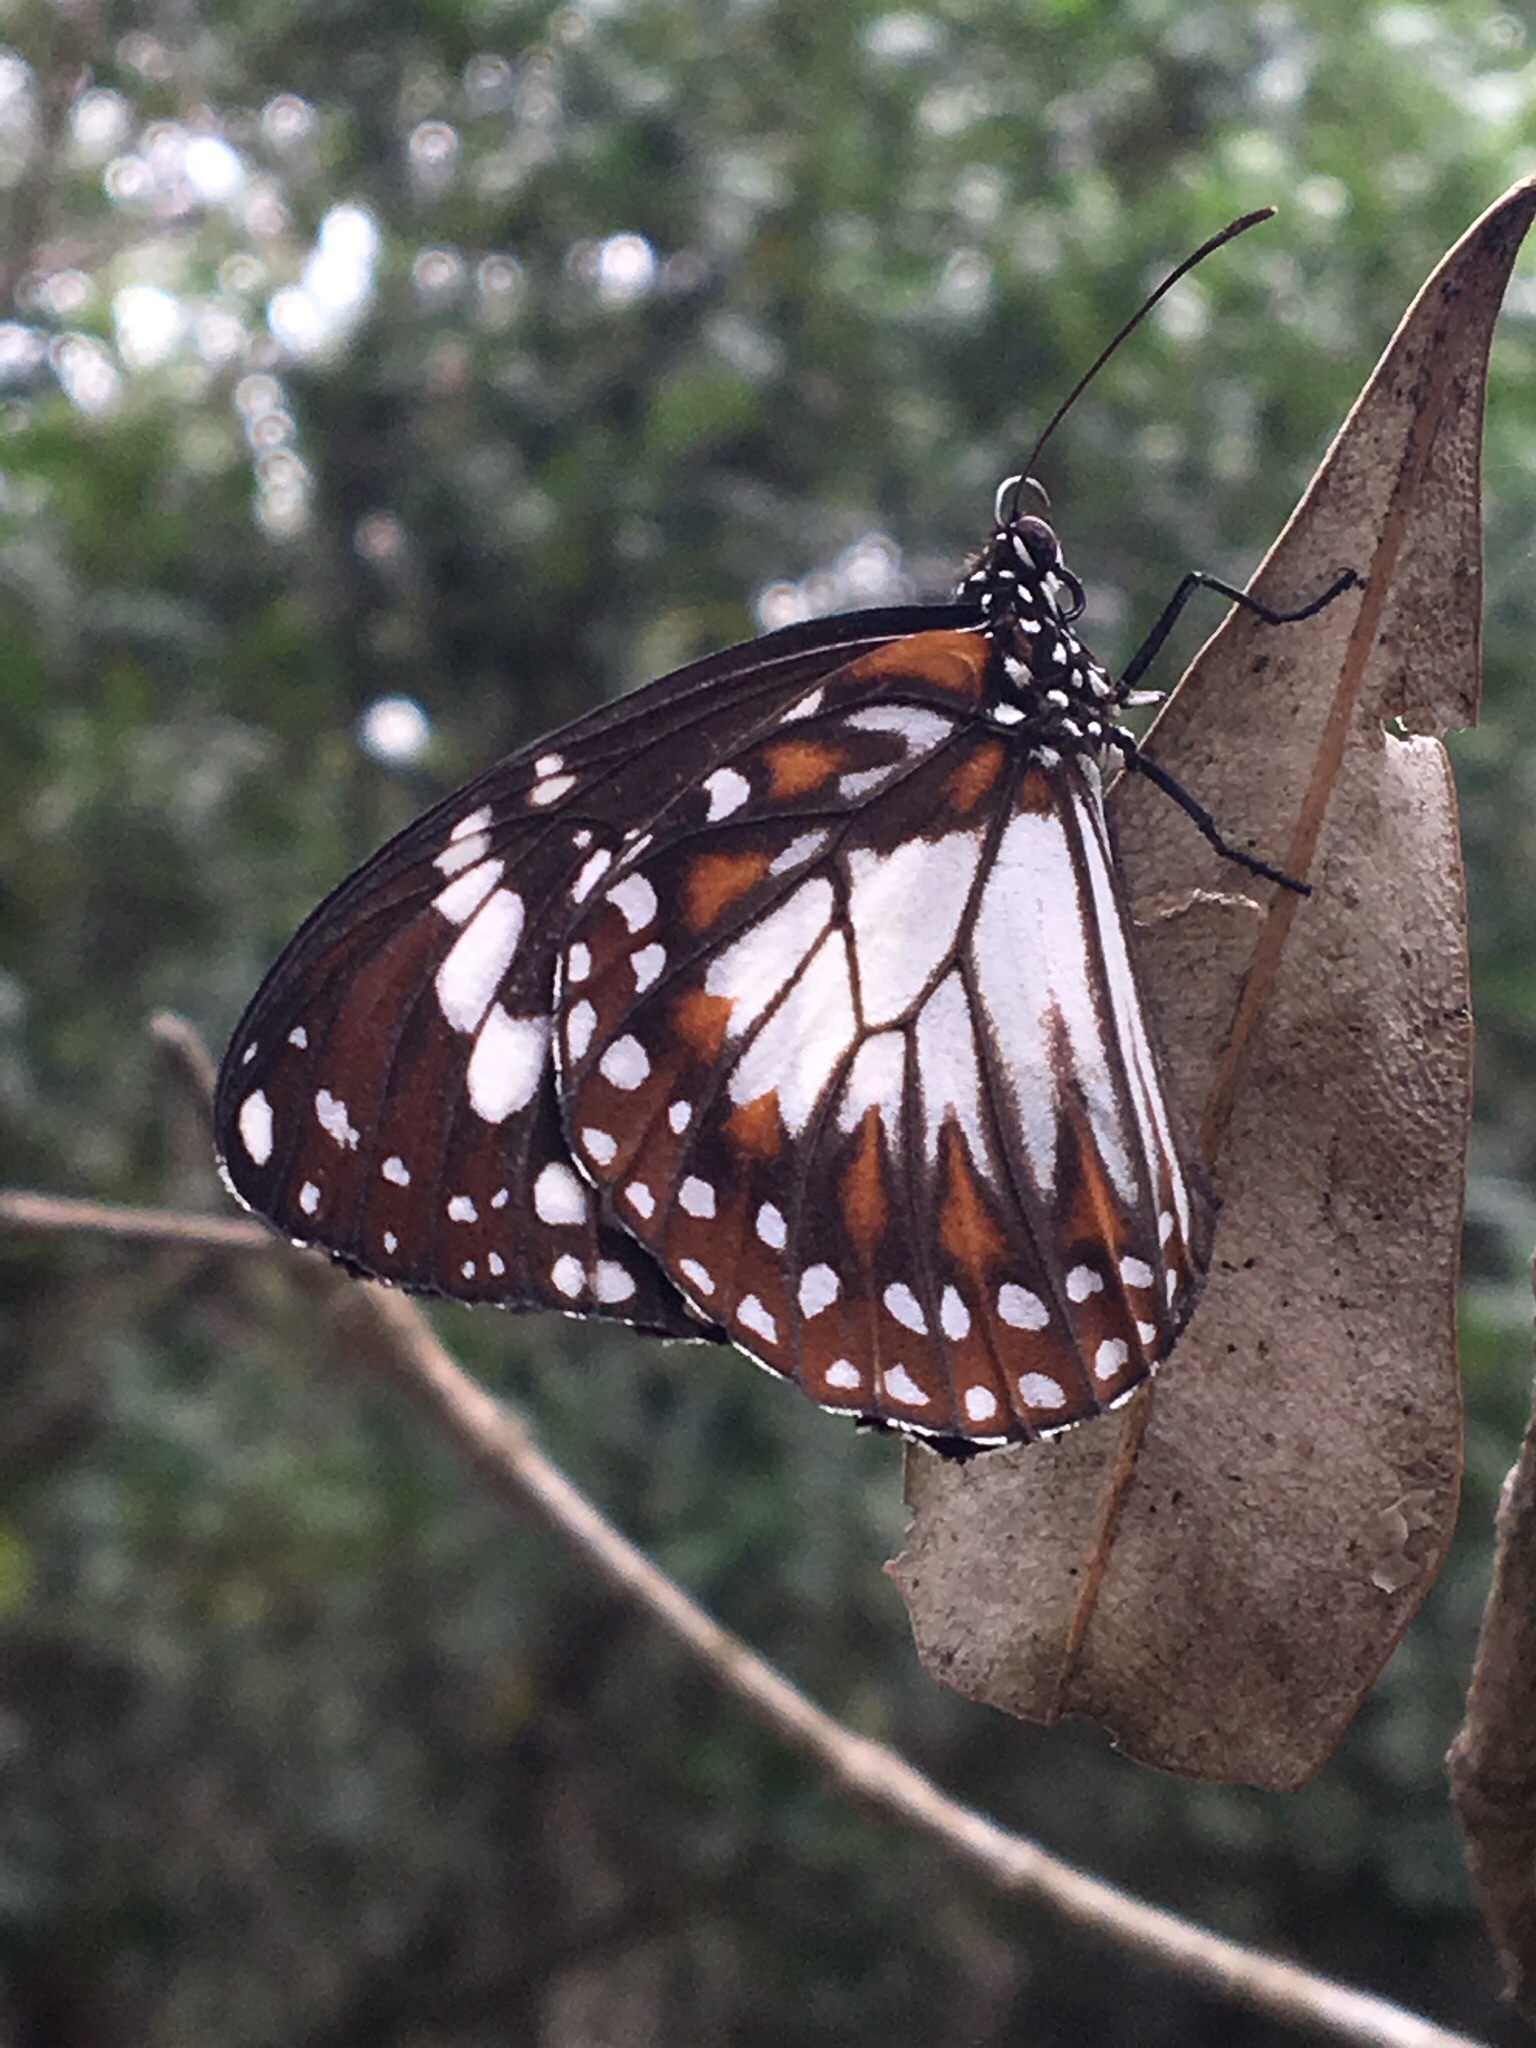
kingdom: Animalia
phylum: Arthropoda
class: Insecta
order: Lepidoptera
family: Nymphalidae
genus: Danaus
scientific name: Danaus affinis
